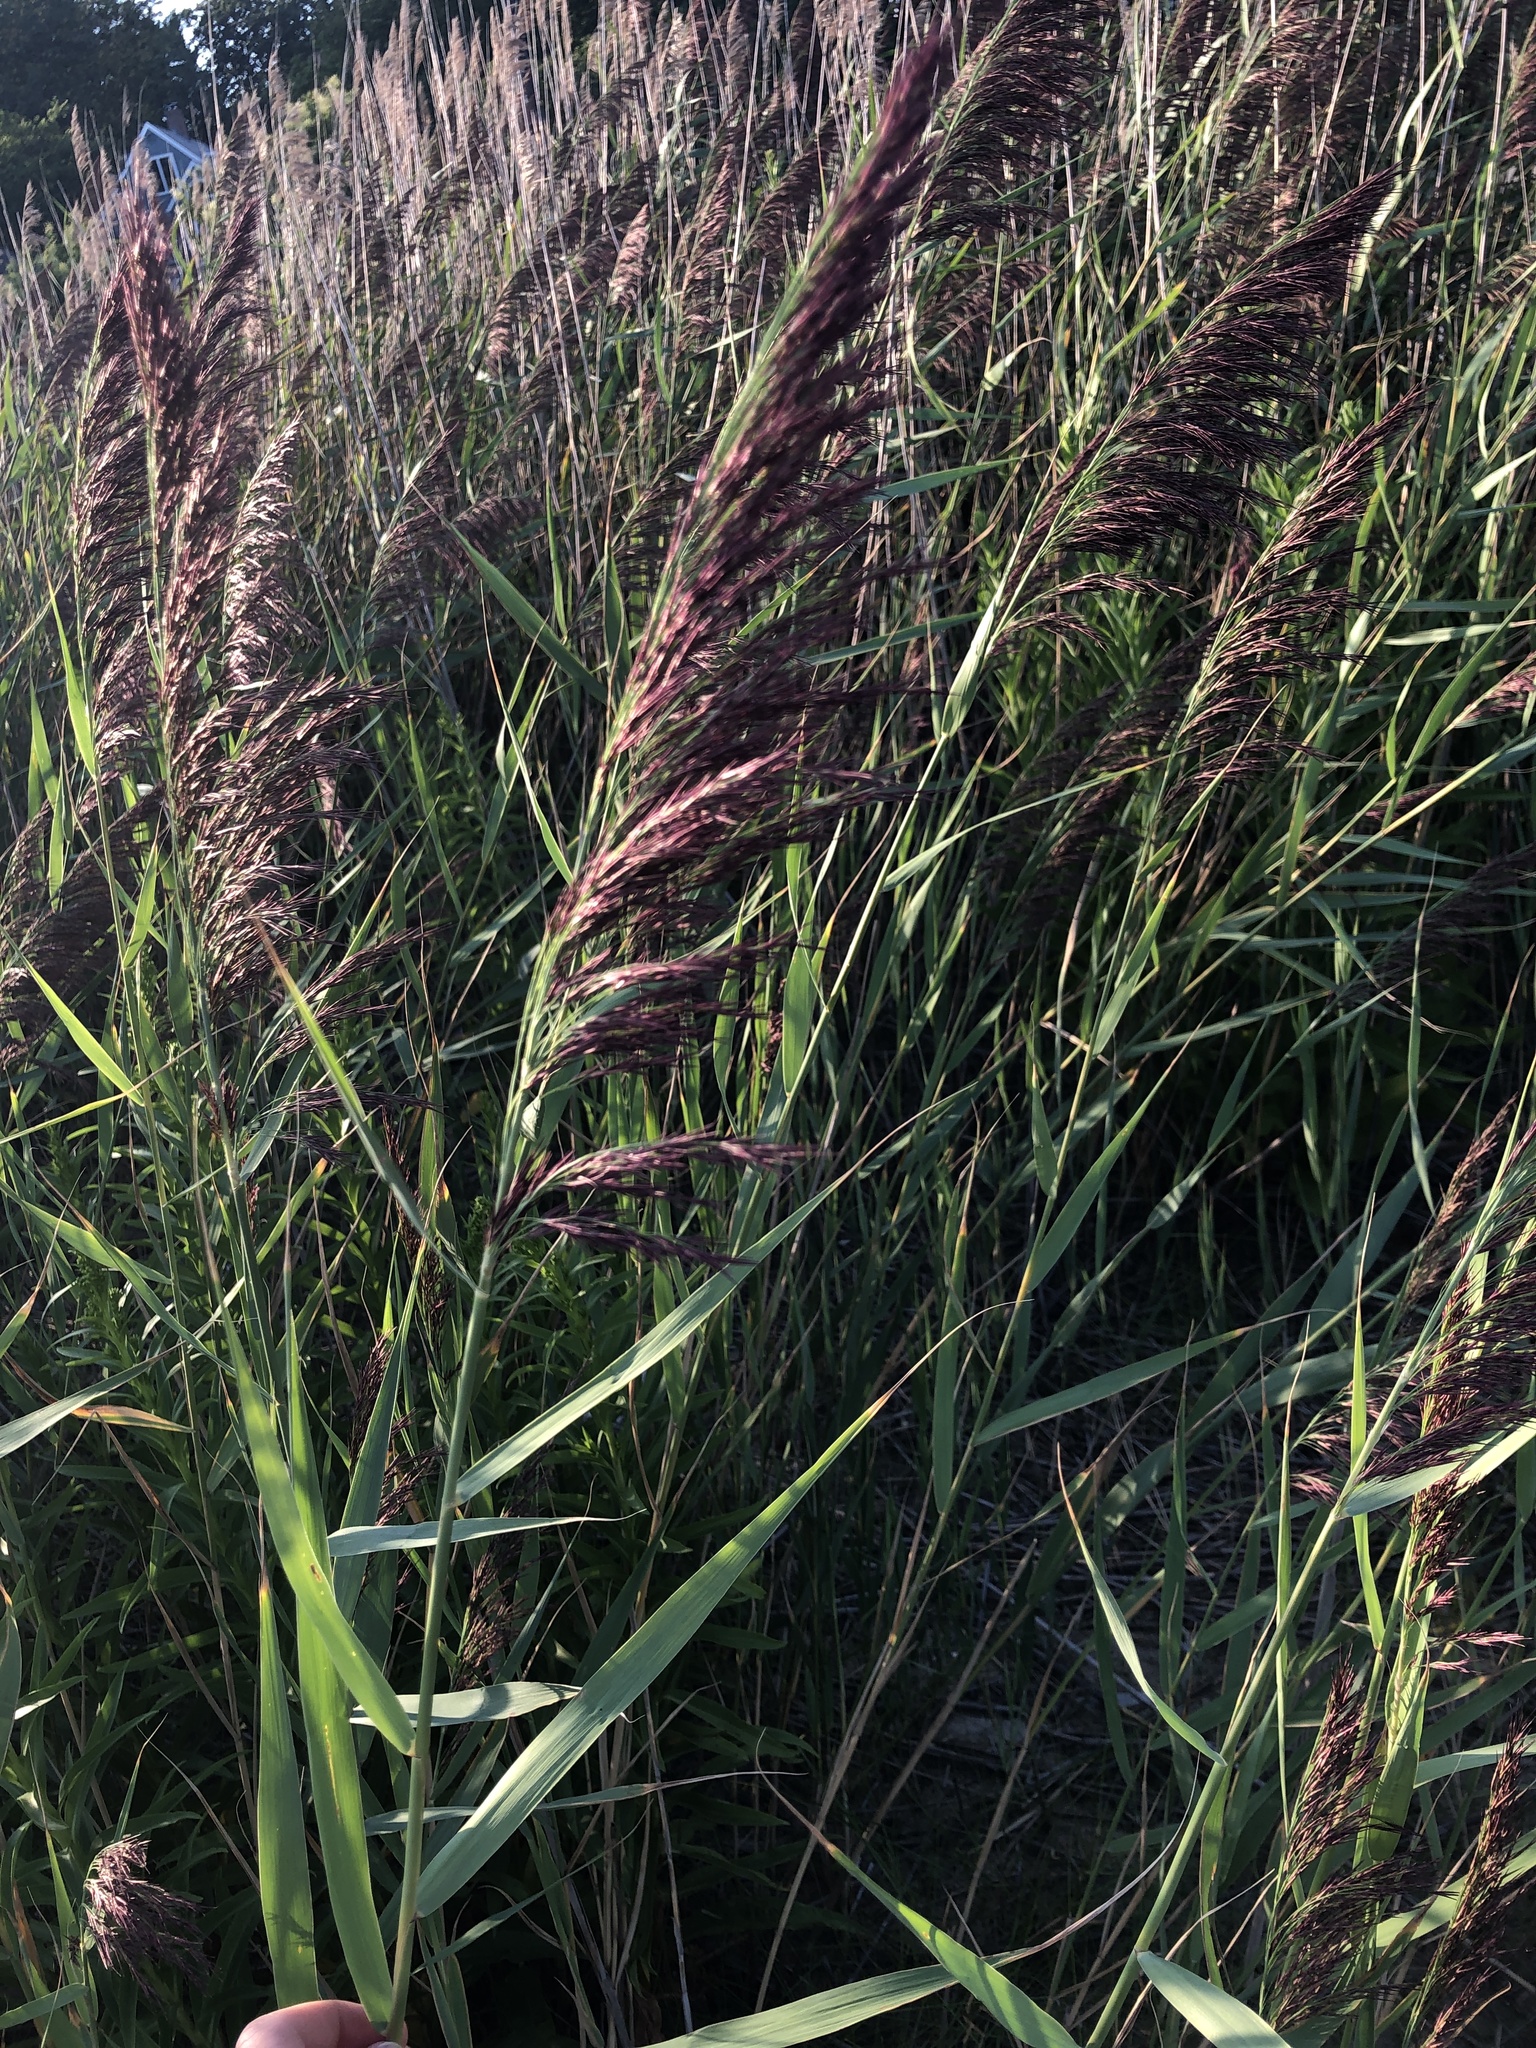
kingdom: Plantae
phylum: Tracheophyta
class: Liliopsida
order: Poales
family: Poaceae
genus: Phragmites
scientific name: Phragmites australis
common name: Common reed
